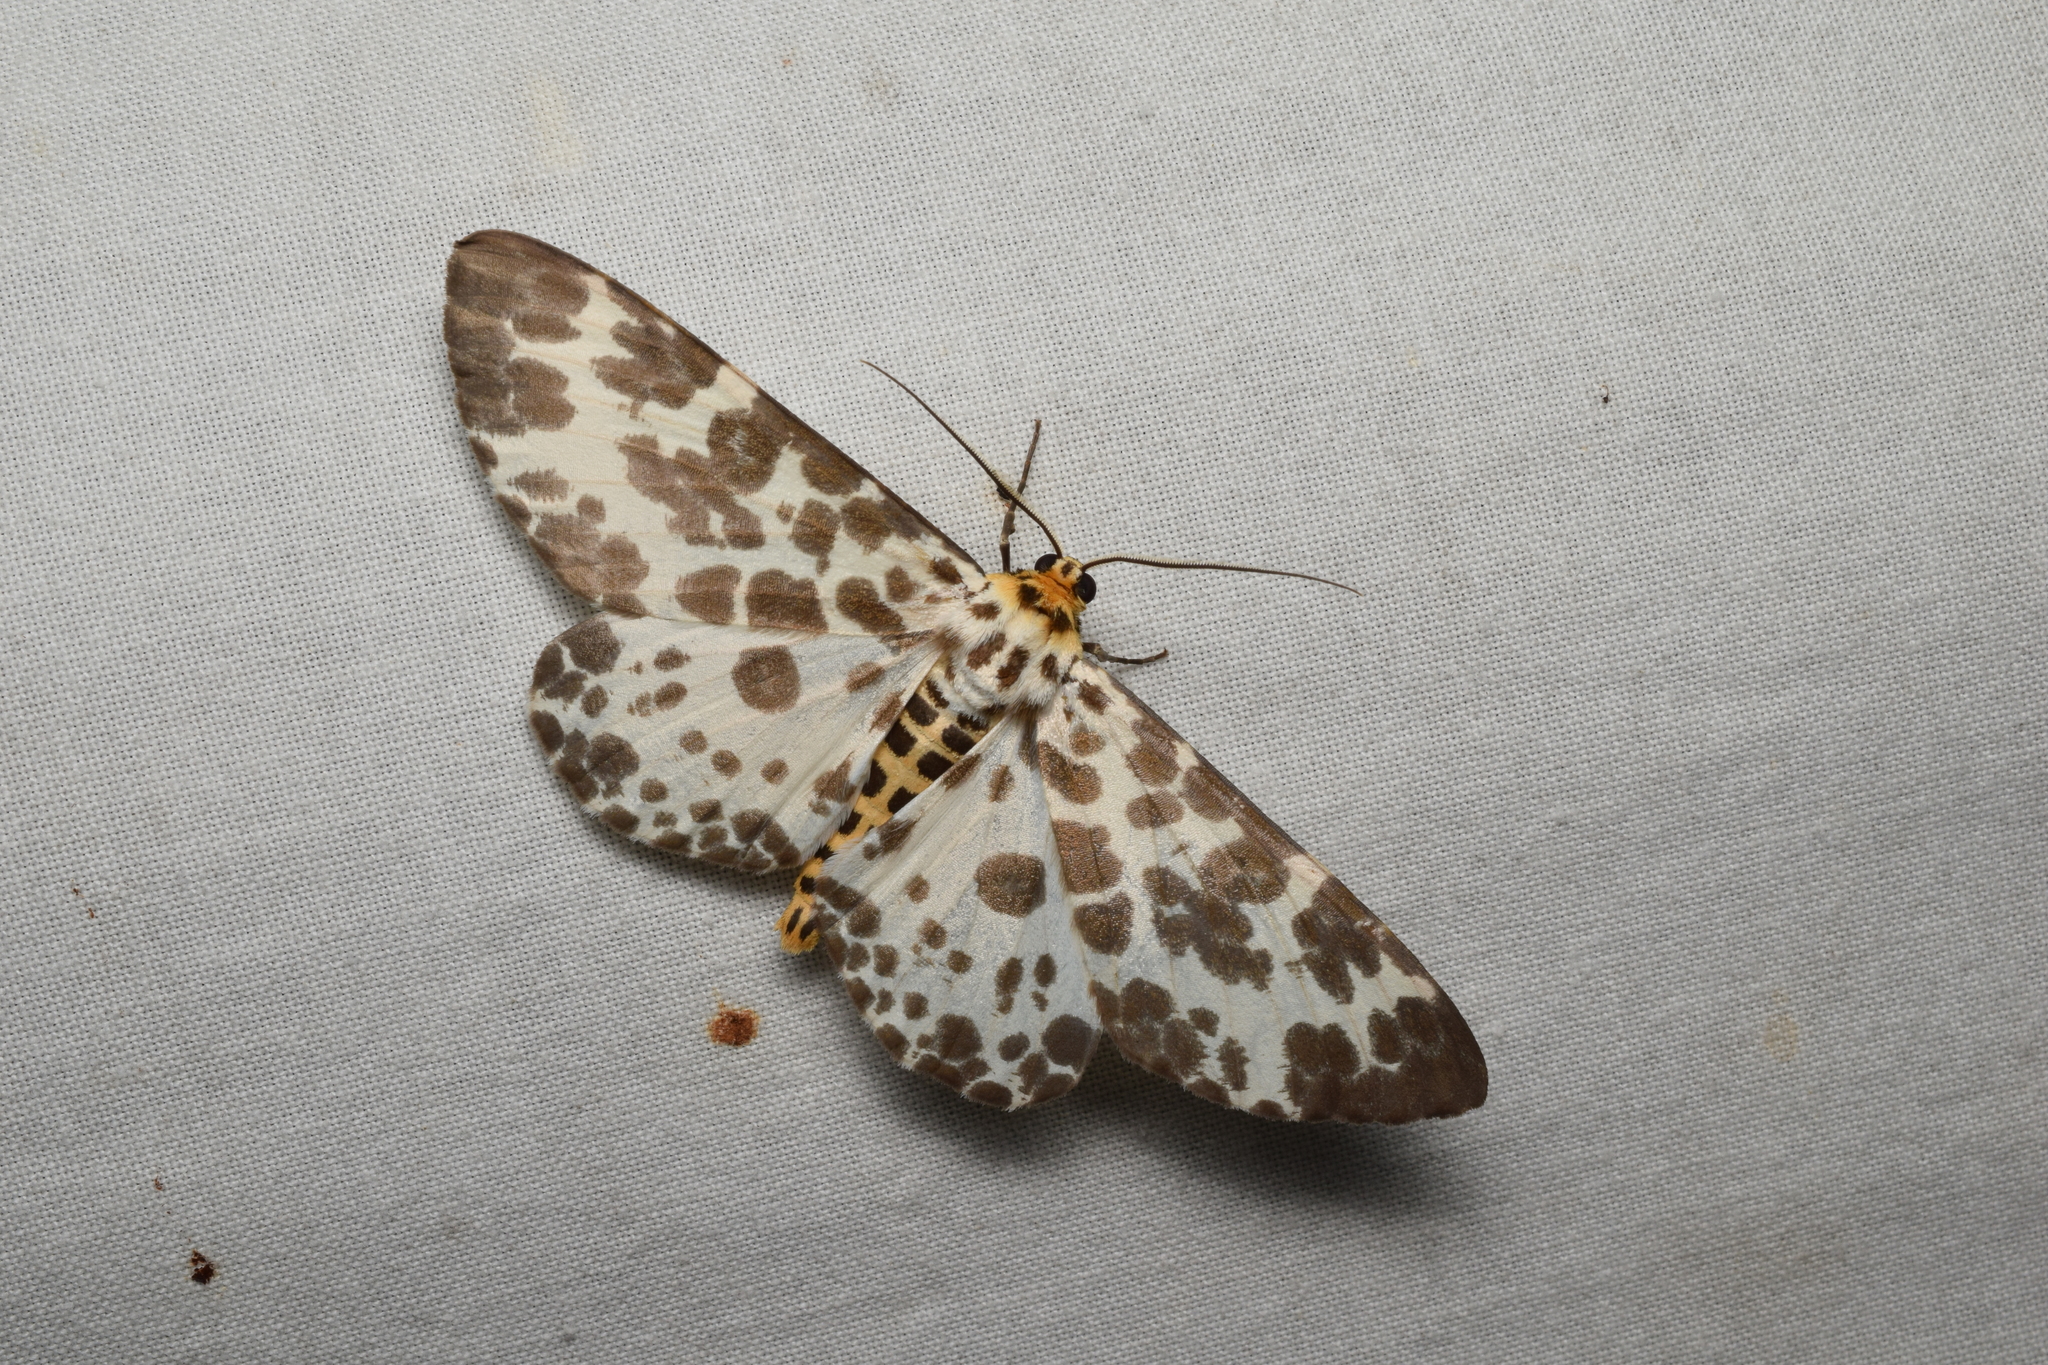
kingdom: Animalia
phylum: Arthropoda
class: Insecta
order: Lepidoptera
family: Geometridae
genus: Parapercnia
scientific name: Parapercnia giraffata
